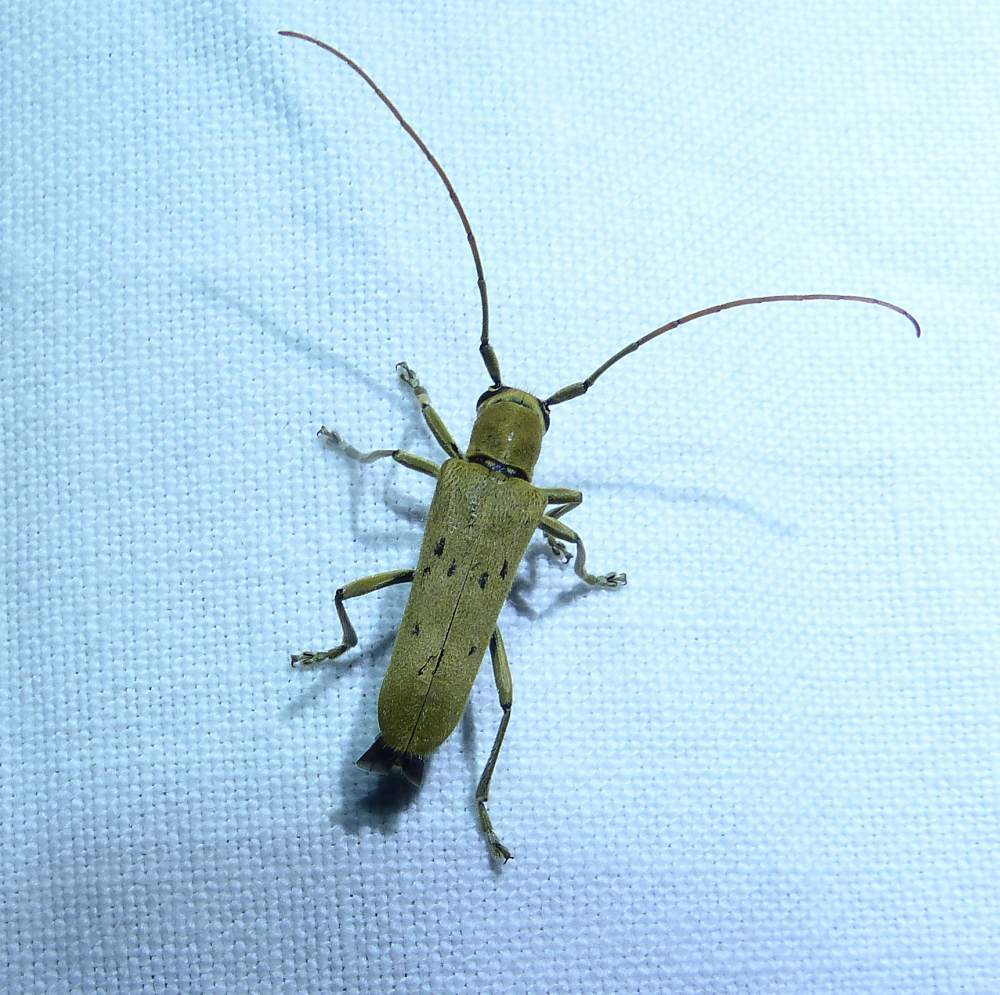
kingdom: Animalia
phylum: Arthropoda
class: Insecta
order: Coleoptera
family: Cerambycidae
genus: Saperda
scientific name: Saperda vestita
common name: Linden borer
